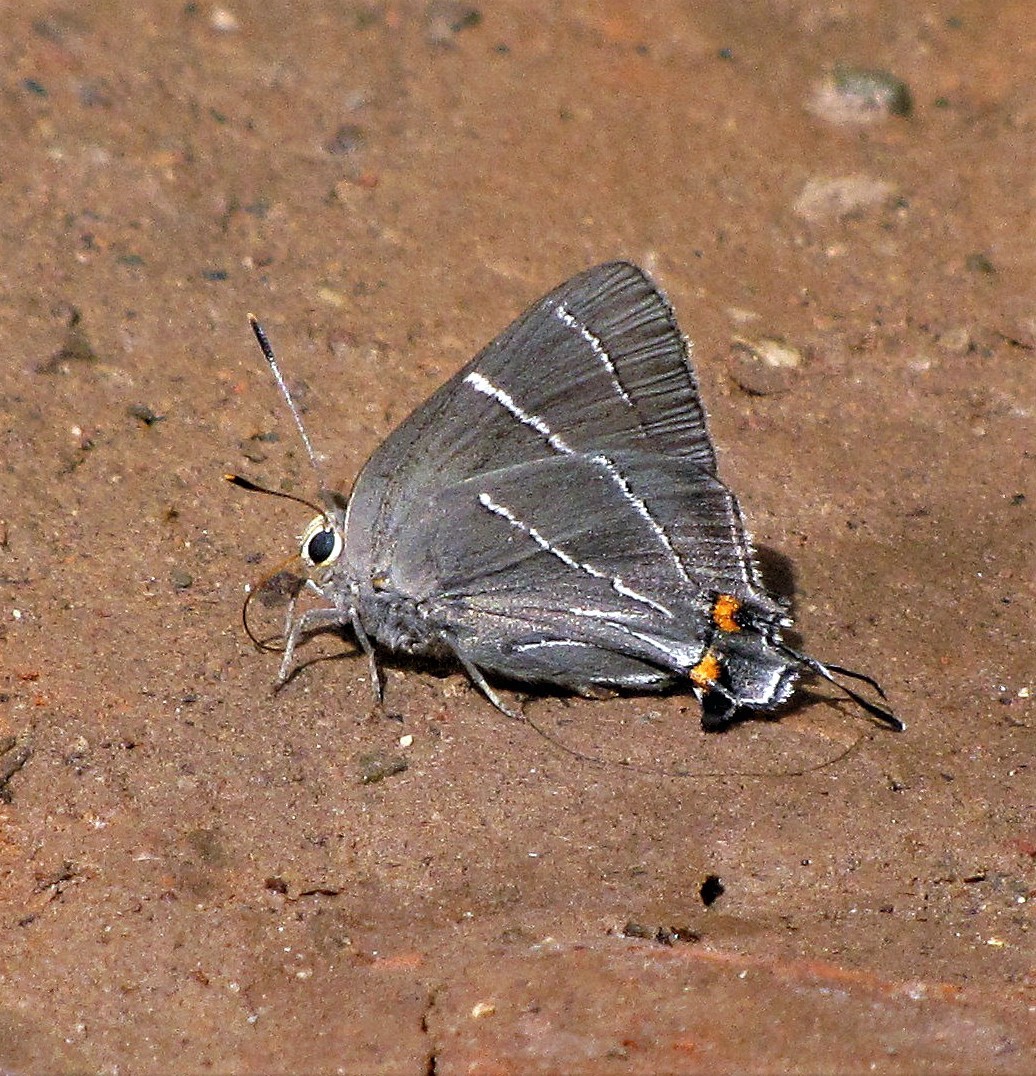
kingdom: Animalia
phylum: Arthropoda
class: Insecta
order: Lepidoptera
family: Lycaenidae
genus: Atlides
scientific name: Atlides
